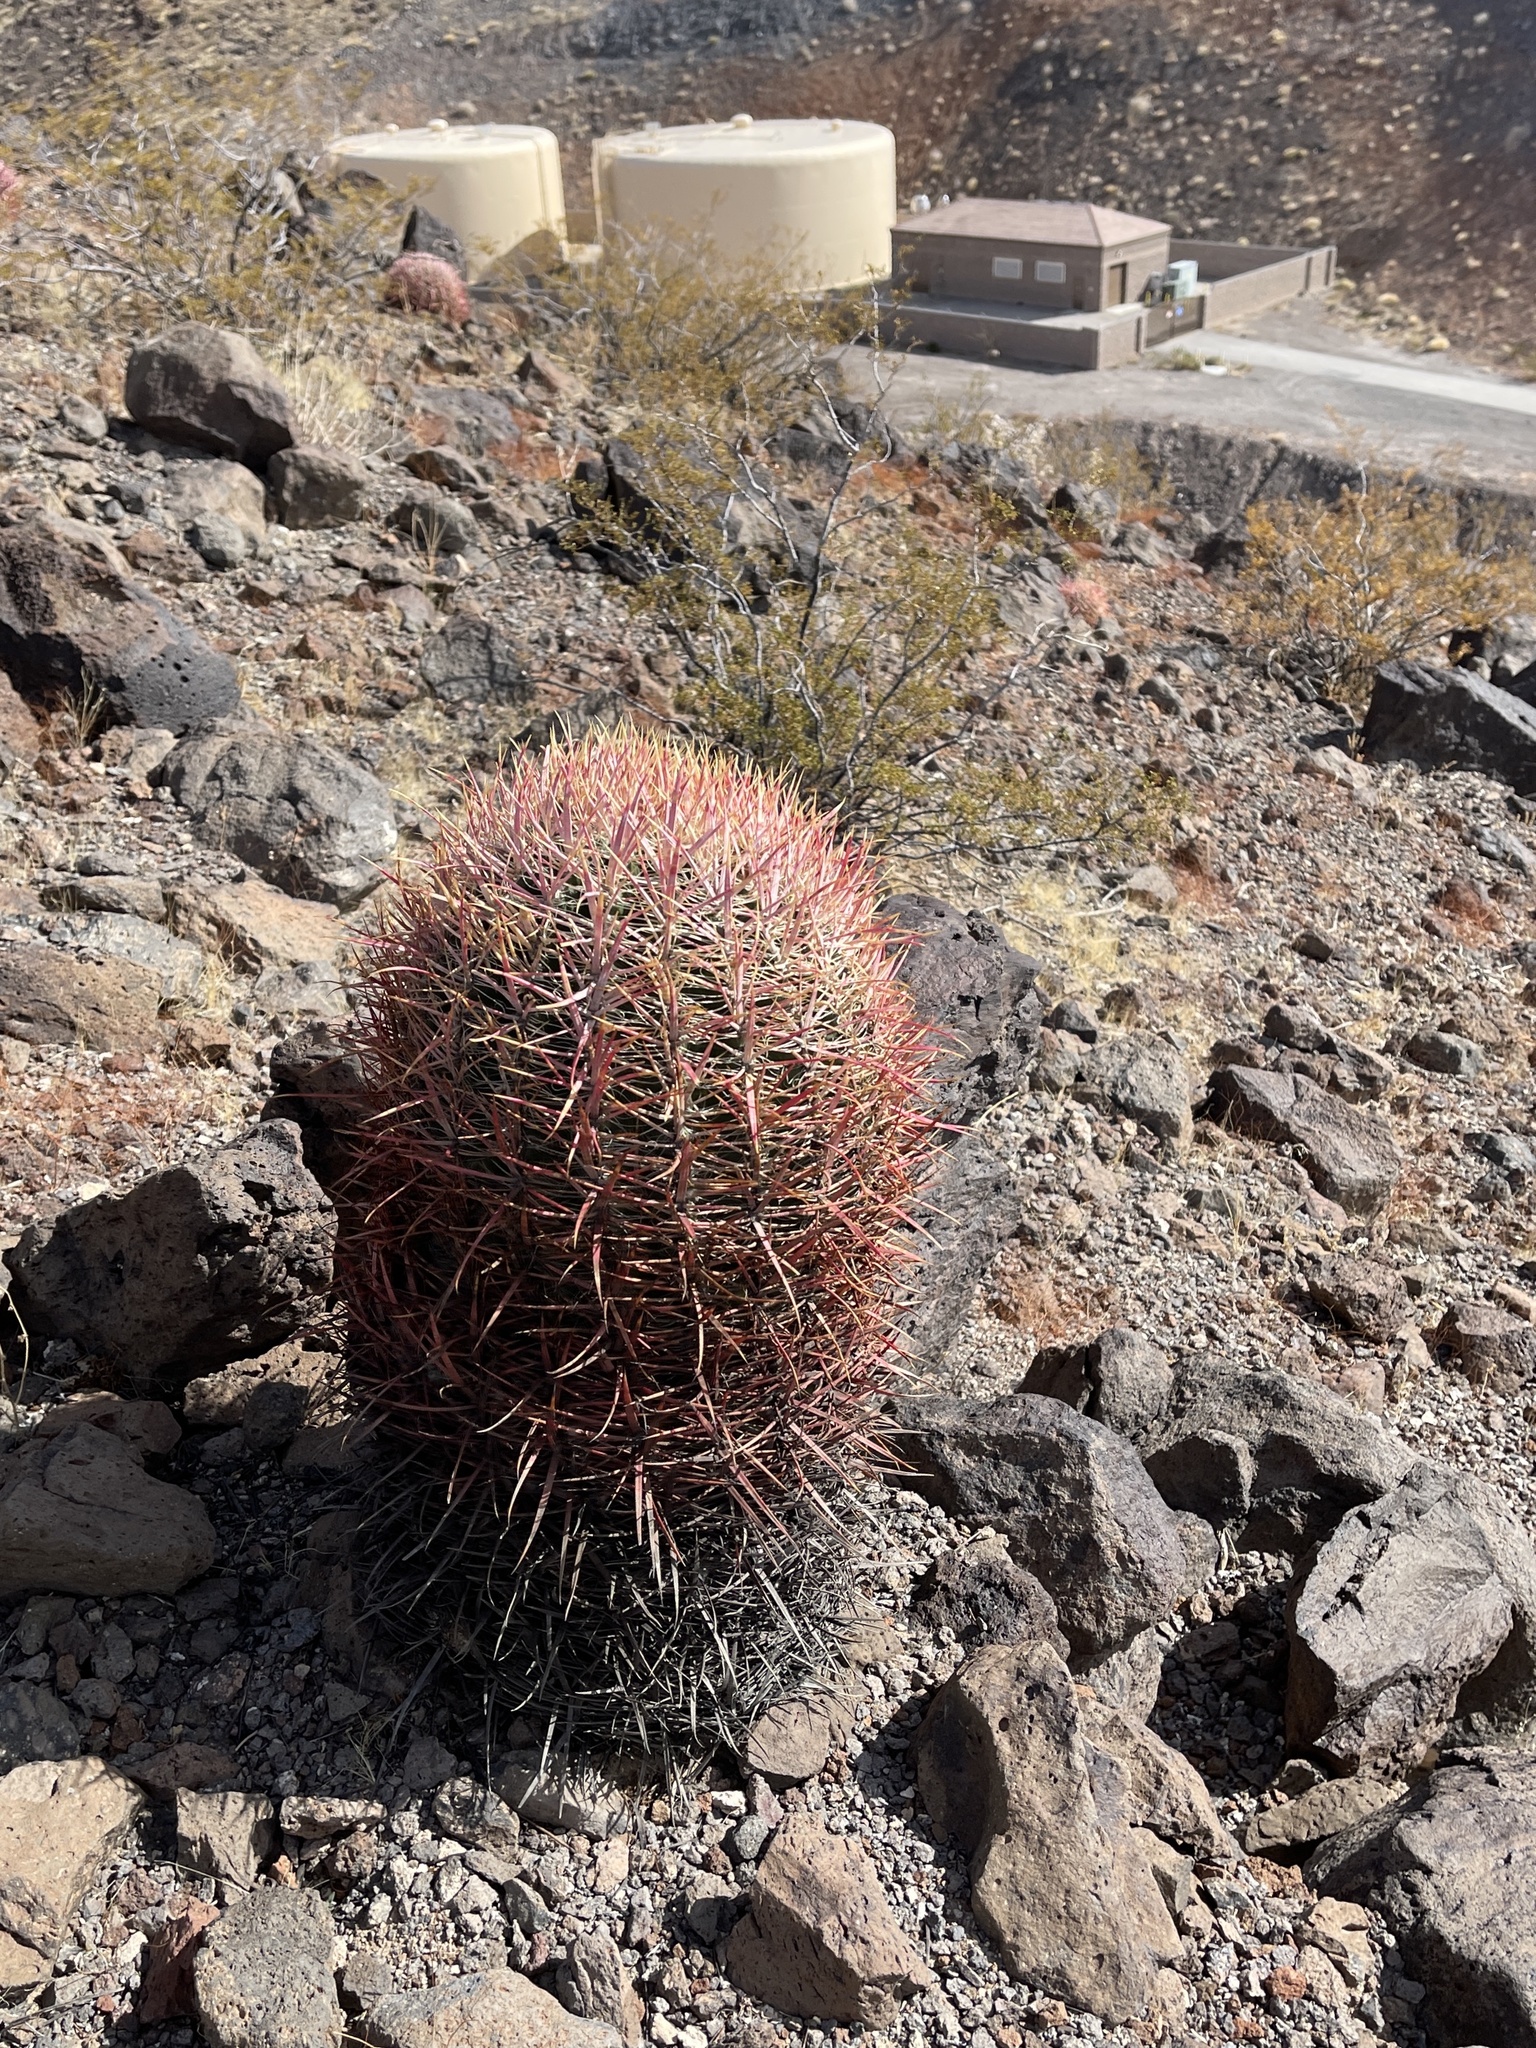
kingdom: Plantae
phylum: Tracheophyta
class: Magnoliopsida
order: Caryophyllales
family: Cactaceae
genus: Ferocactus
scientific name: Ferocactus cylindraceus
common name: California barrel cactus
